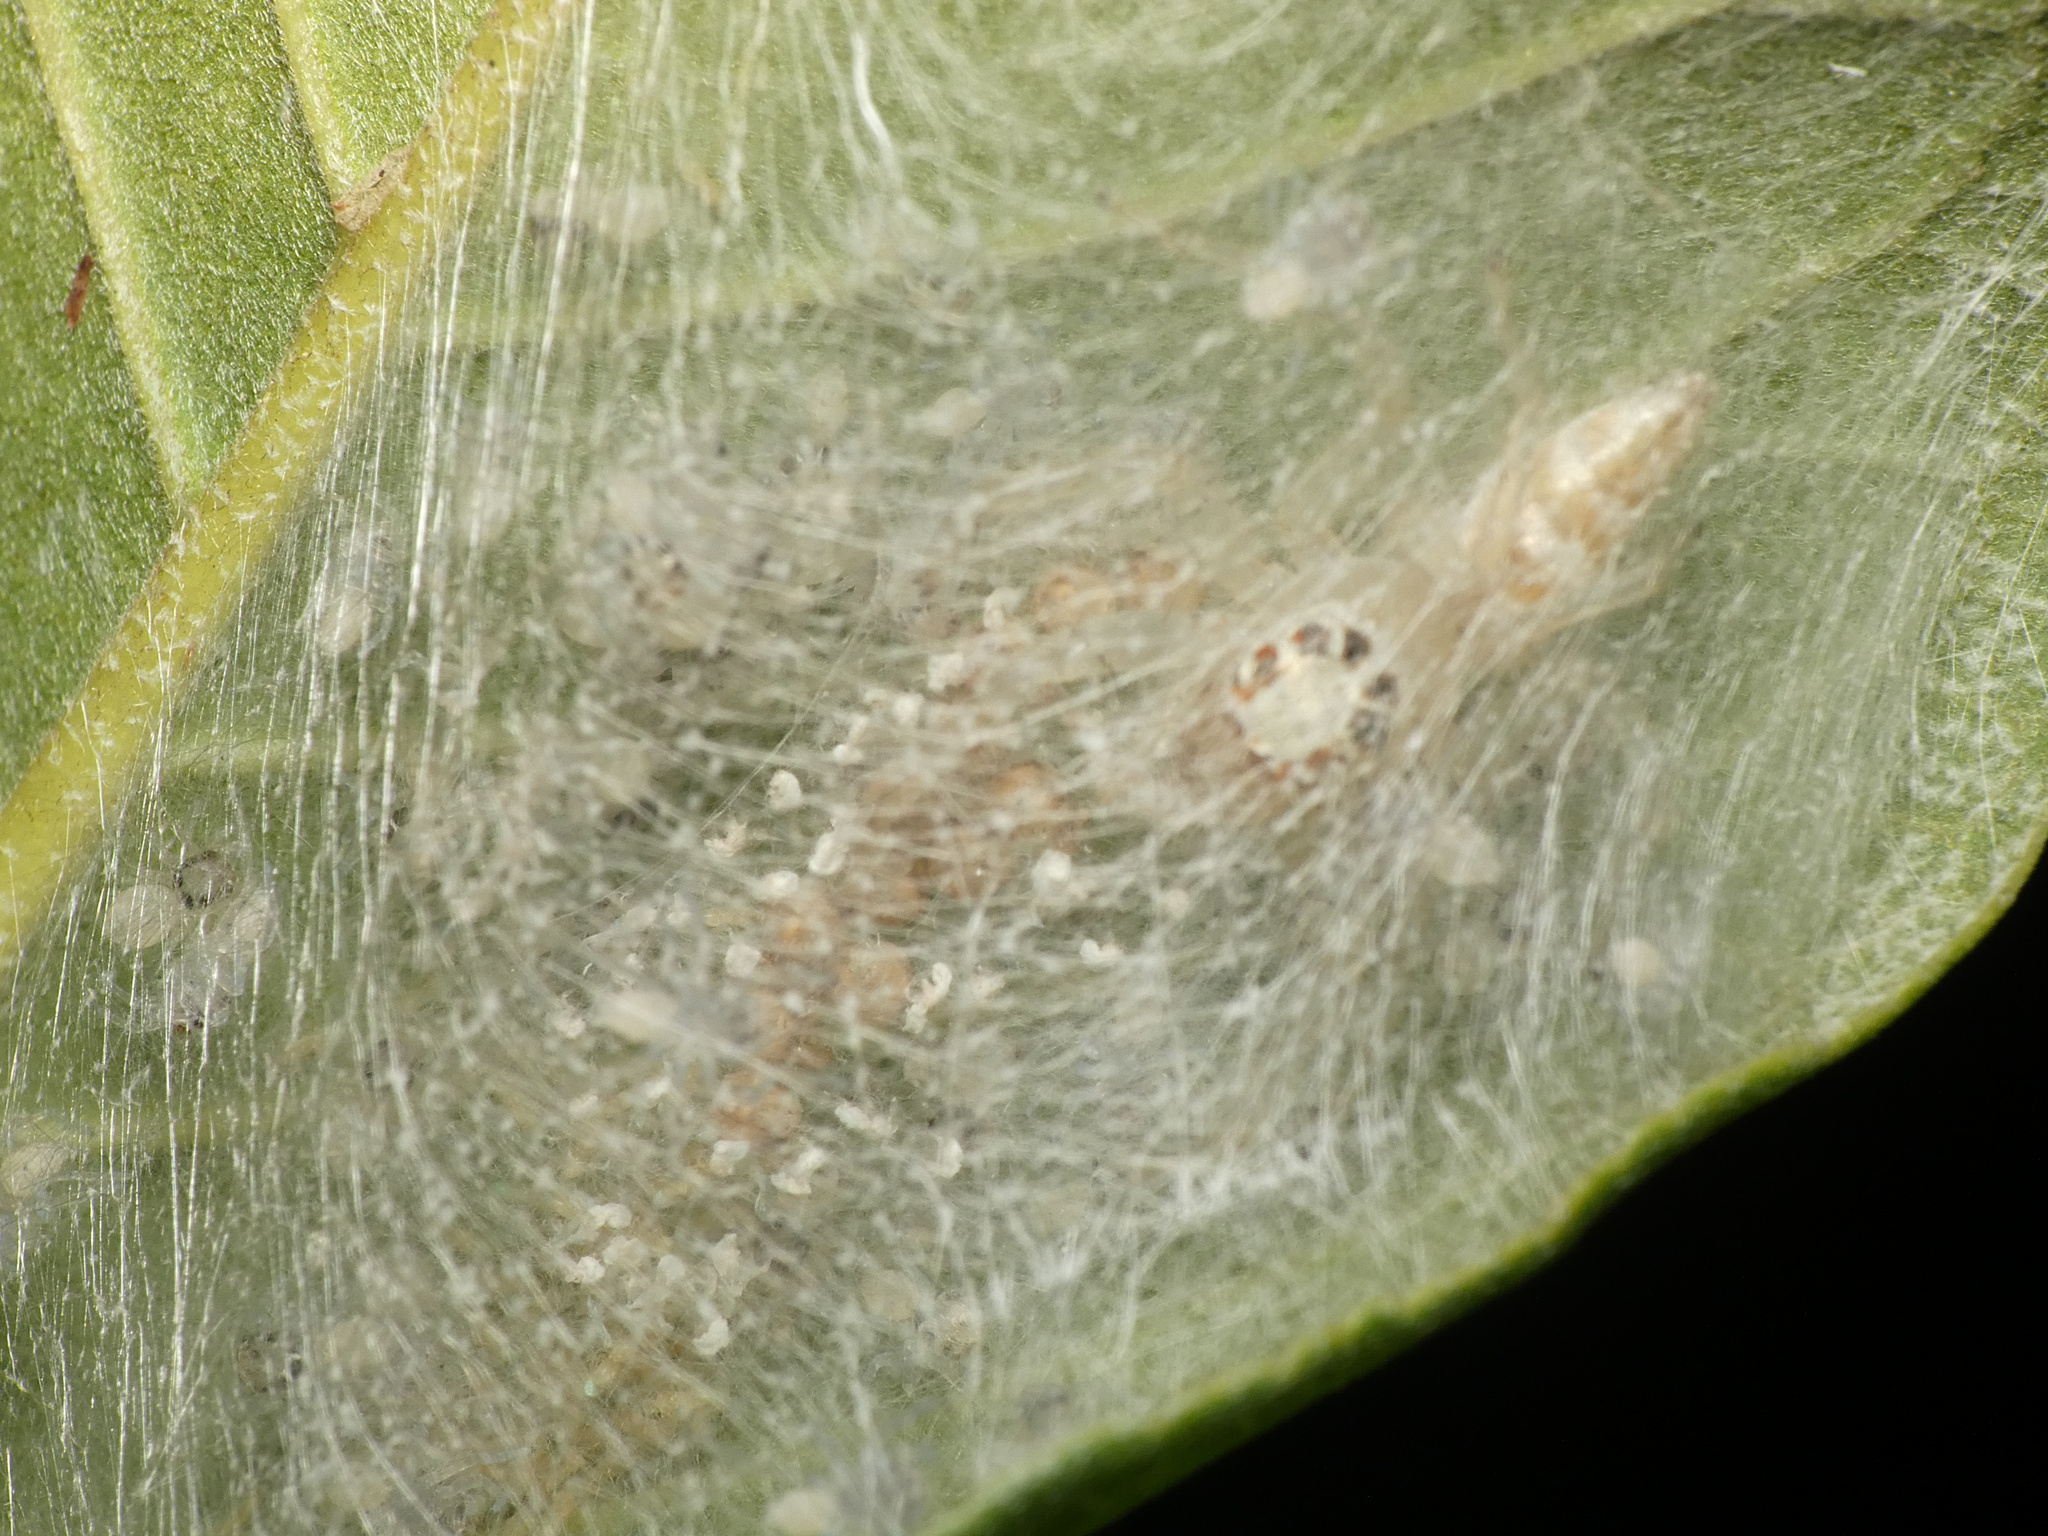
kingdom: Animalia
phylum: Arthropoda
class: Arachnida
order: Araneae
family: Salticidae
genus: Brancus
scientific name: Brancus mustelus
